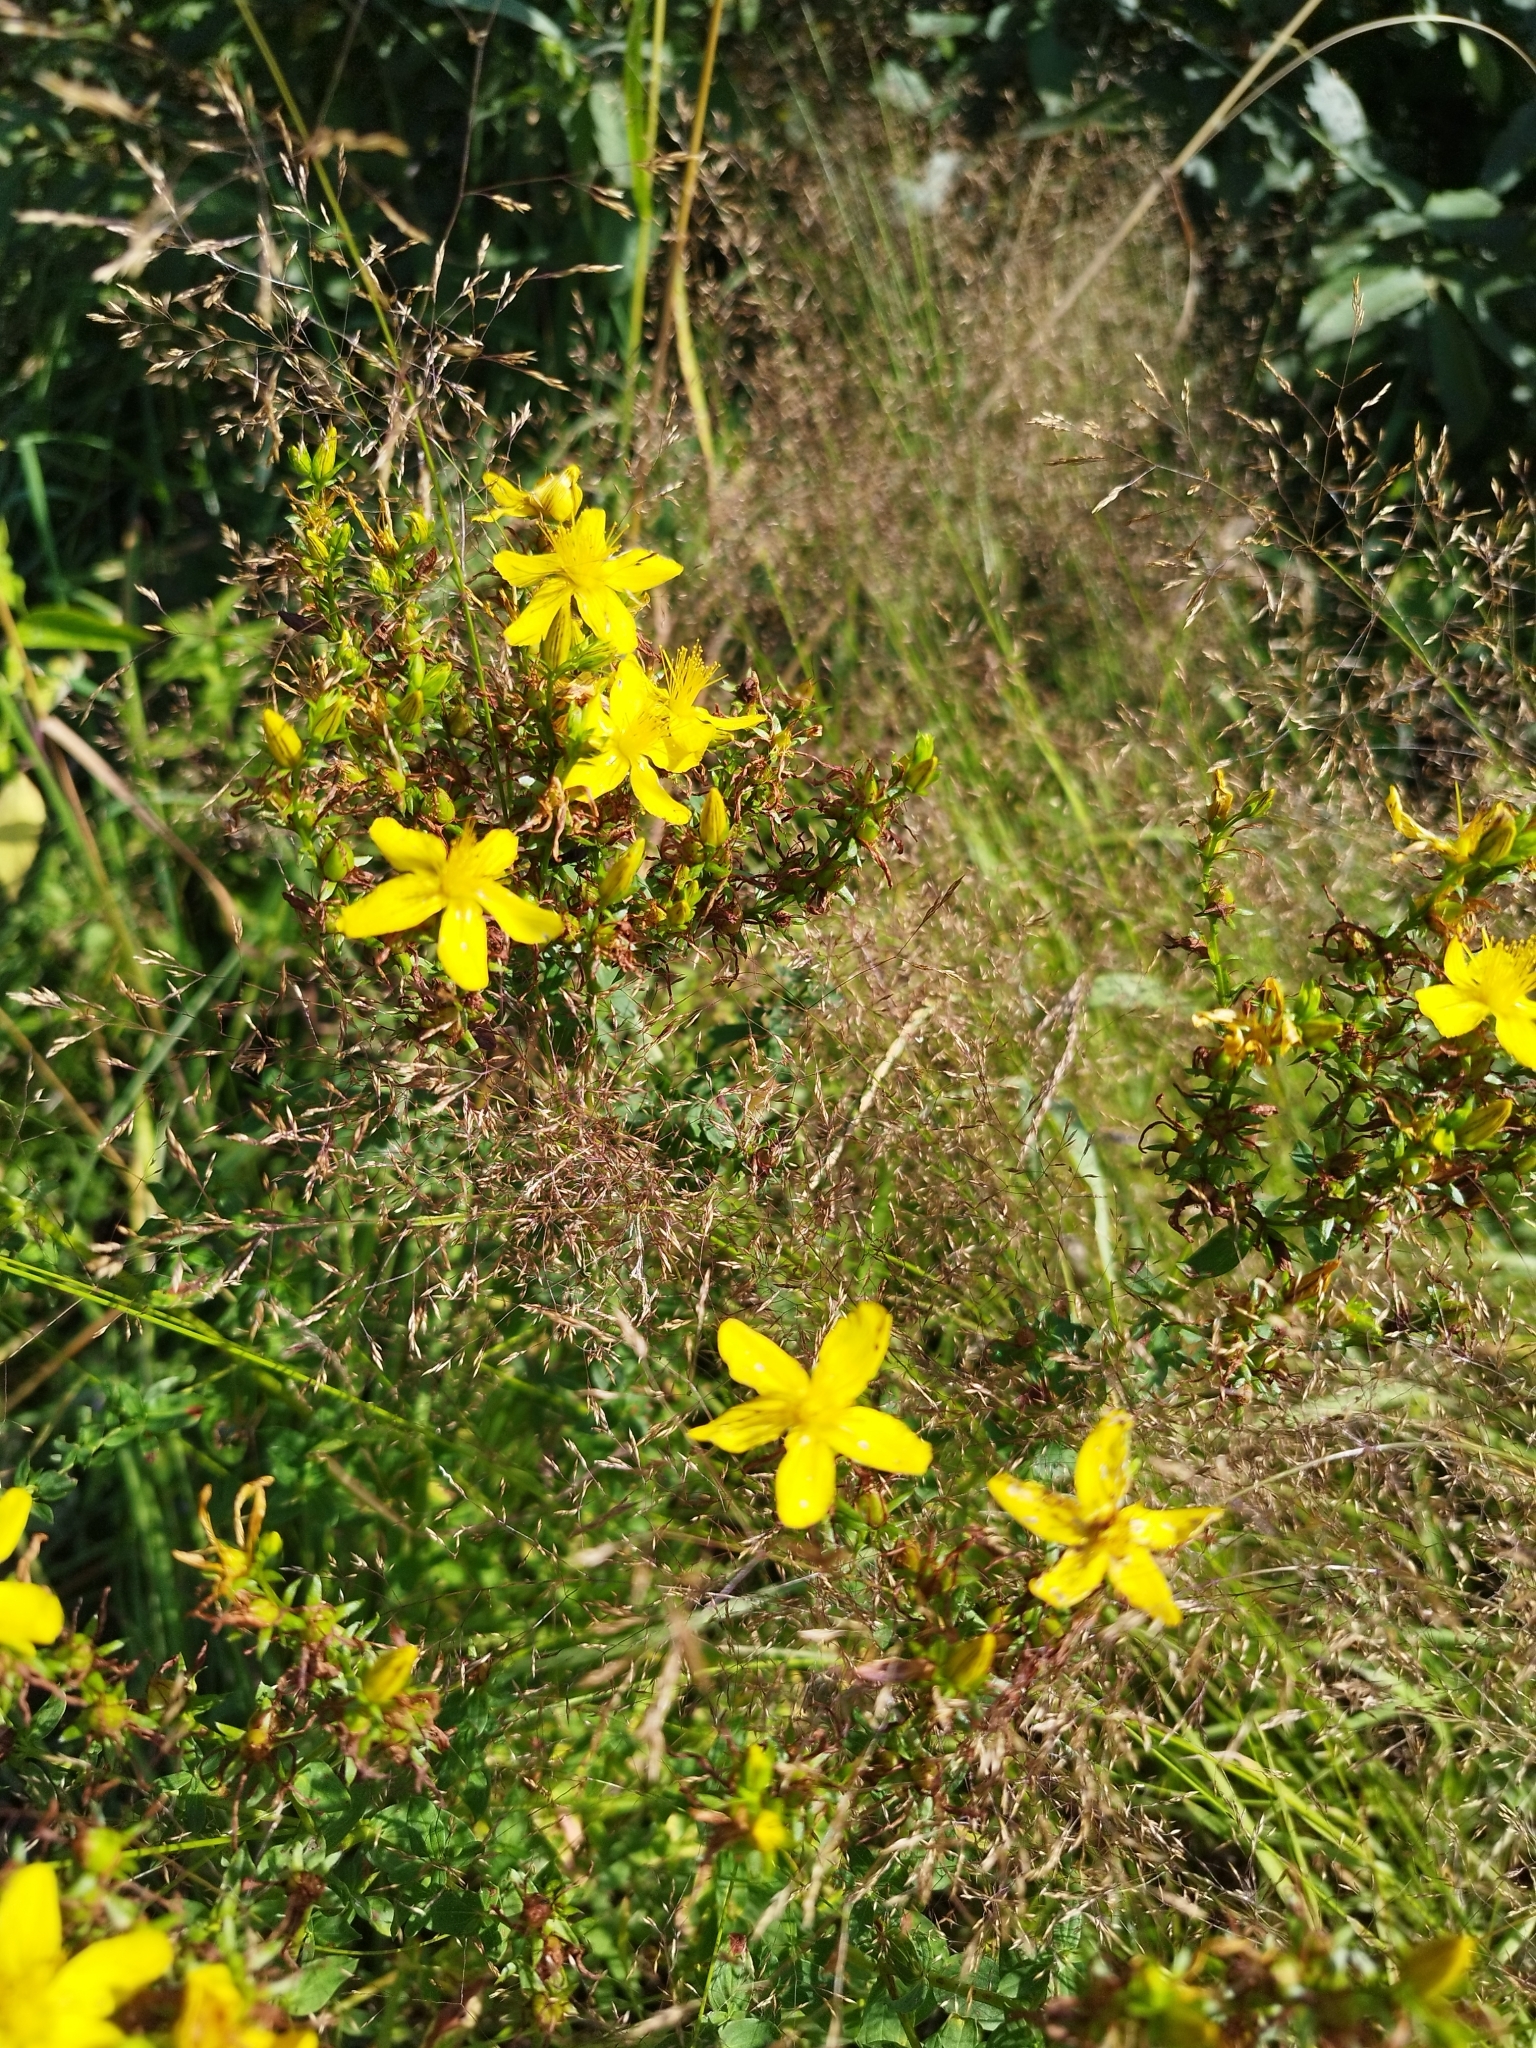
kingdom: Plantae
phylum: Tracheophyta
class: Magnoliopsida
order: Malpighiales
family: Hypericaceae
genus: Hypericum
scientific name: Hypericum perforatum
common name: Common st. johnswort
